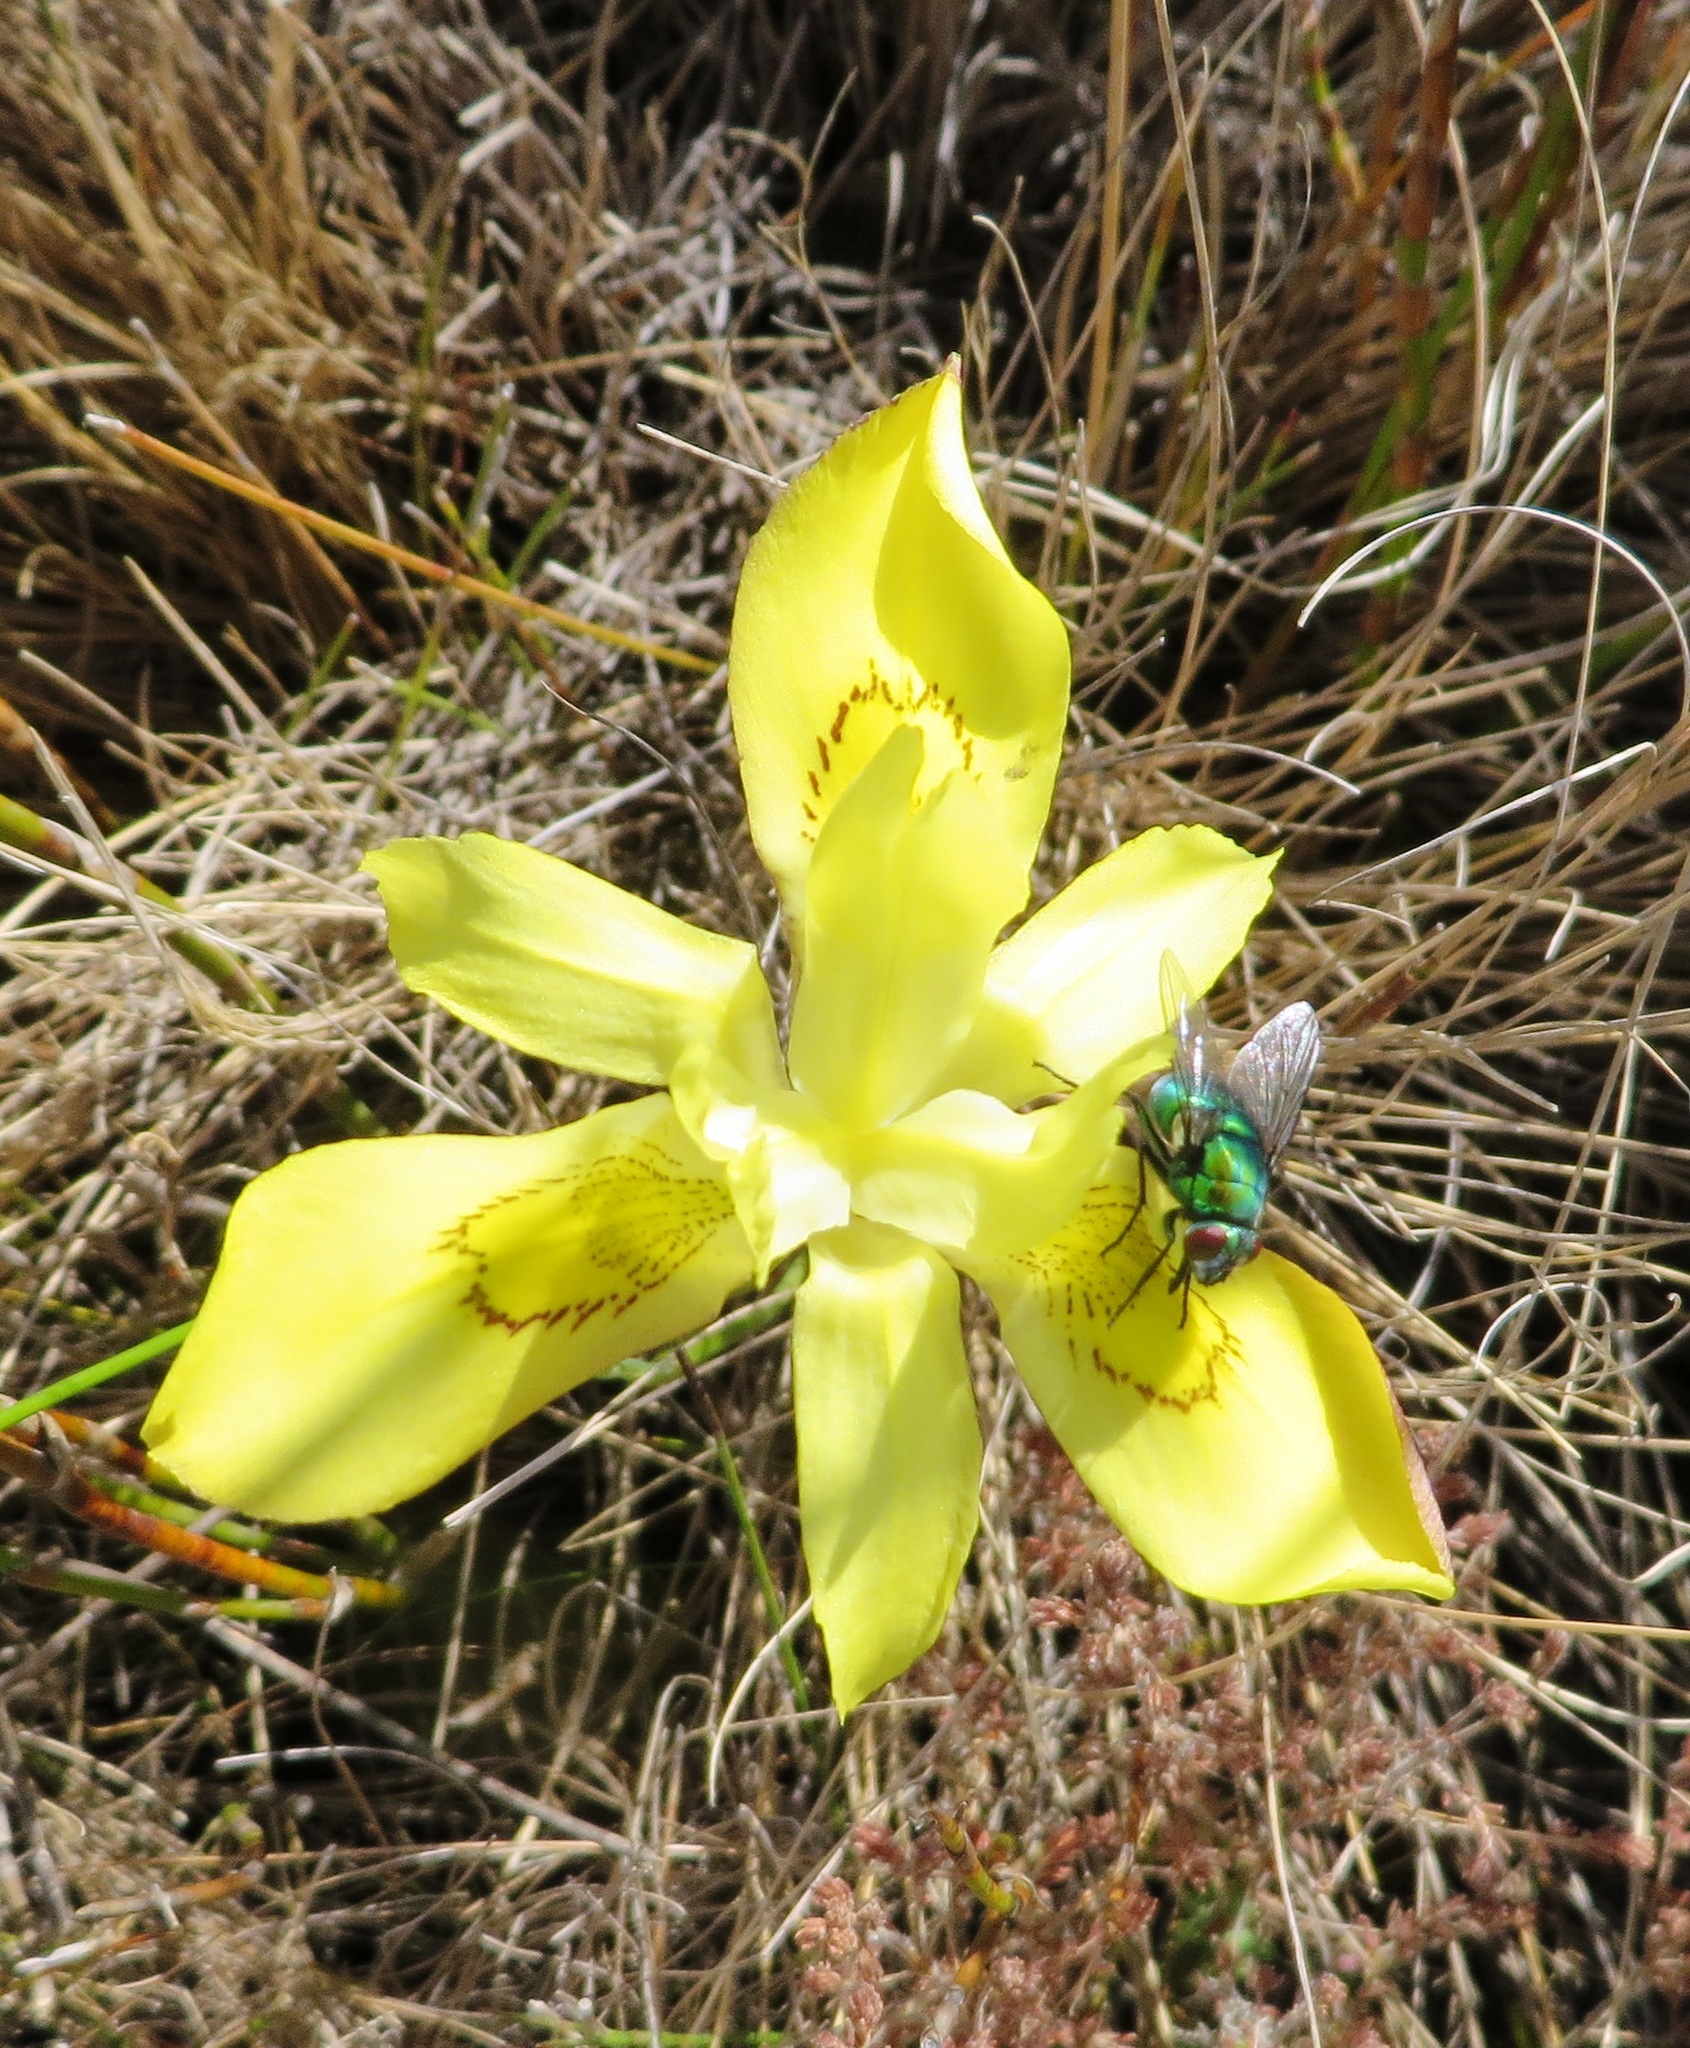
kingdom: Plantae
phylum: Tracheophyta
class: Liliopsida
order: Asparagales
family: Iridaceae
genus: Moraea
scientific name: Moraea neglecta
